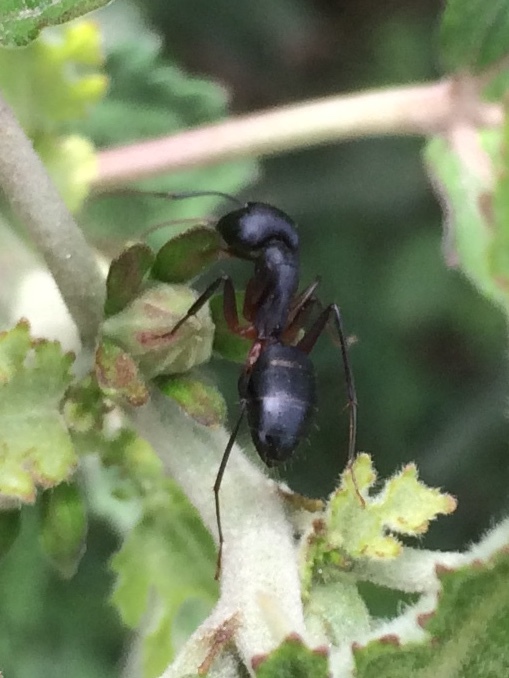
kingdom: Animalia
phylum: Arthropoda
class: Insecta
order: Hymenoptera
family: Formicidae
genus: Camponotus
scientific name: Camponotus compressus
